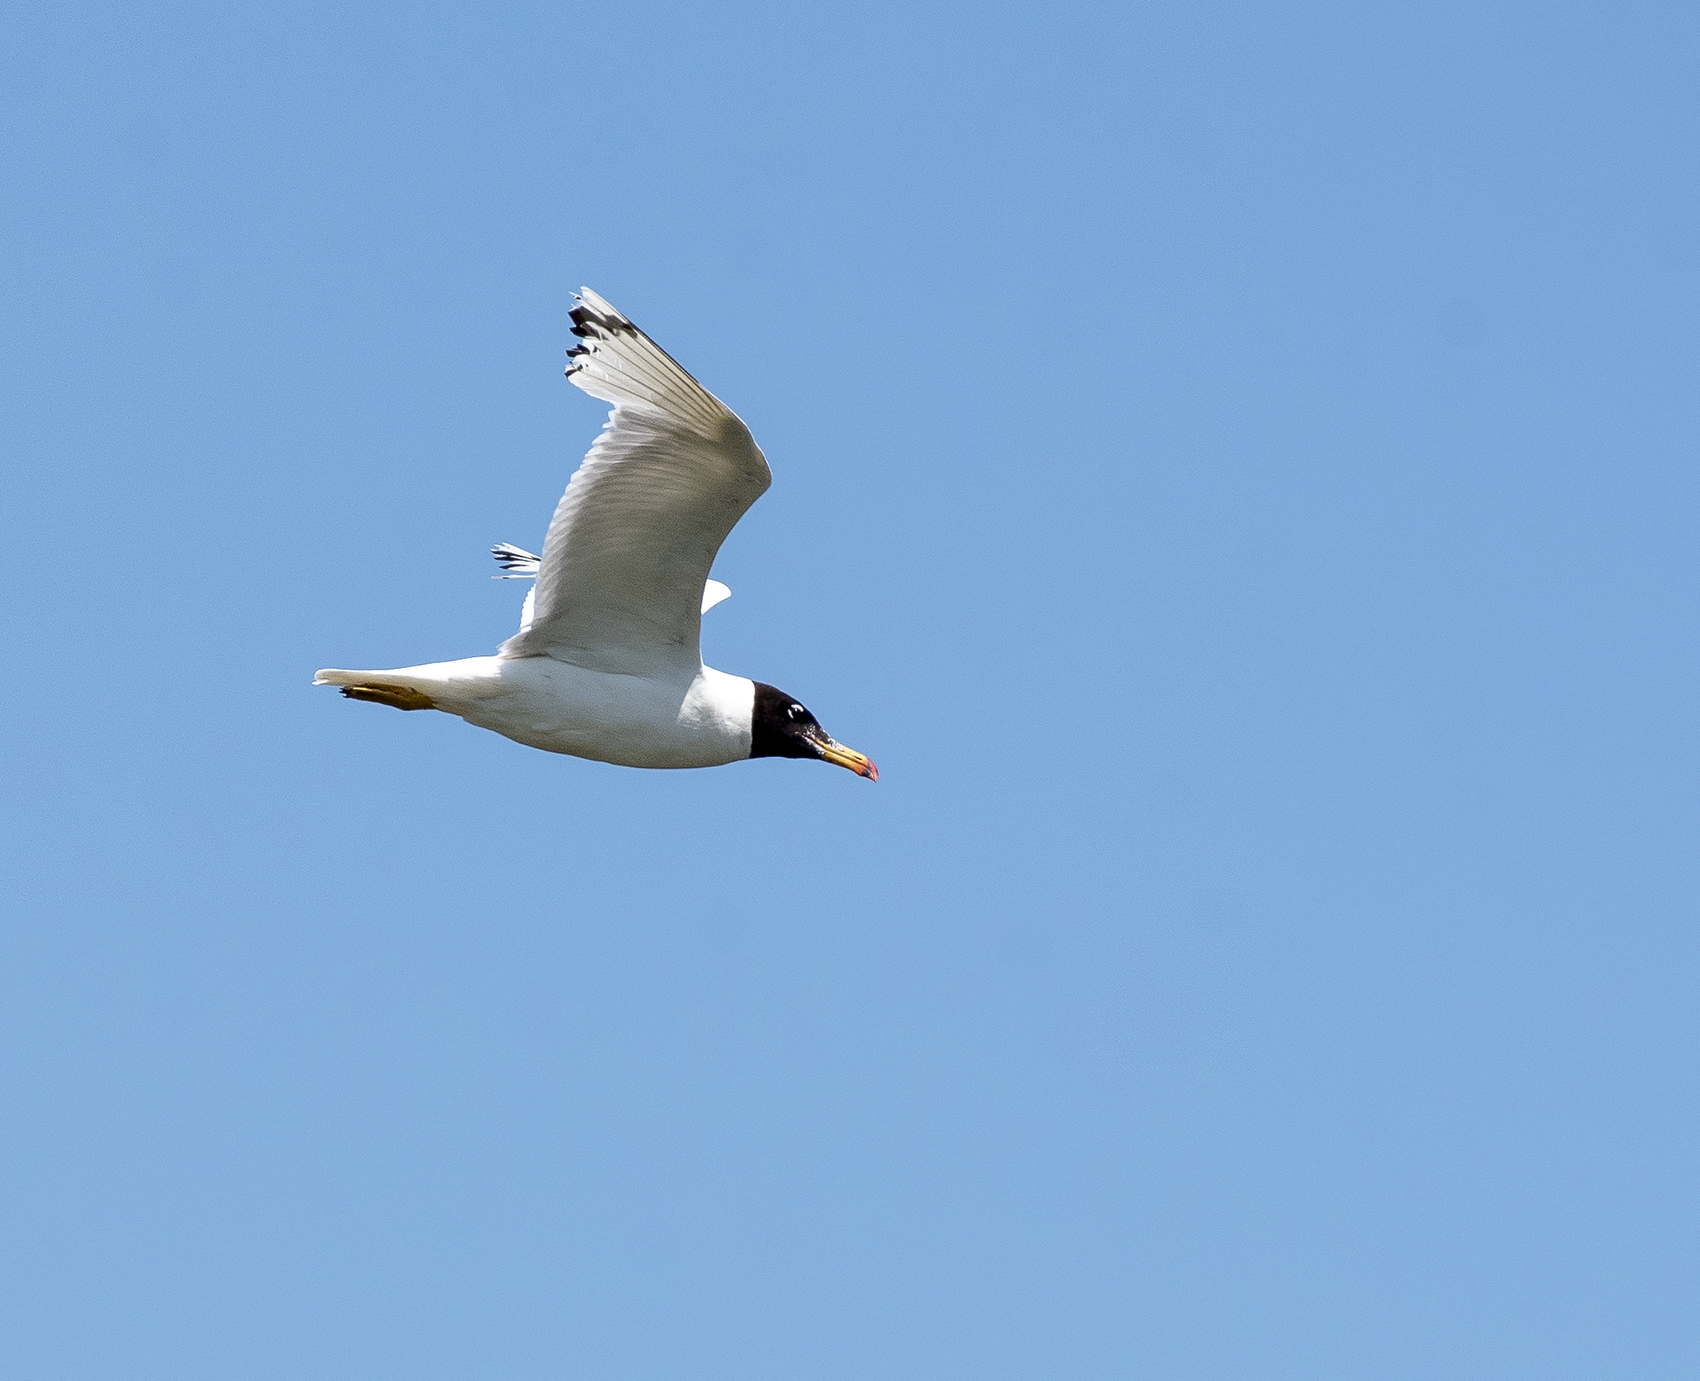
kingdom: Animalia
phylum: Chordata
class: Aves
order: Charadriiformes
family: Laridae
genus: Ichthyaetus
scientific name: Ichthyaetus ichthyaetus
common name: Pallas's gull
